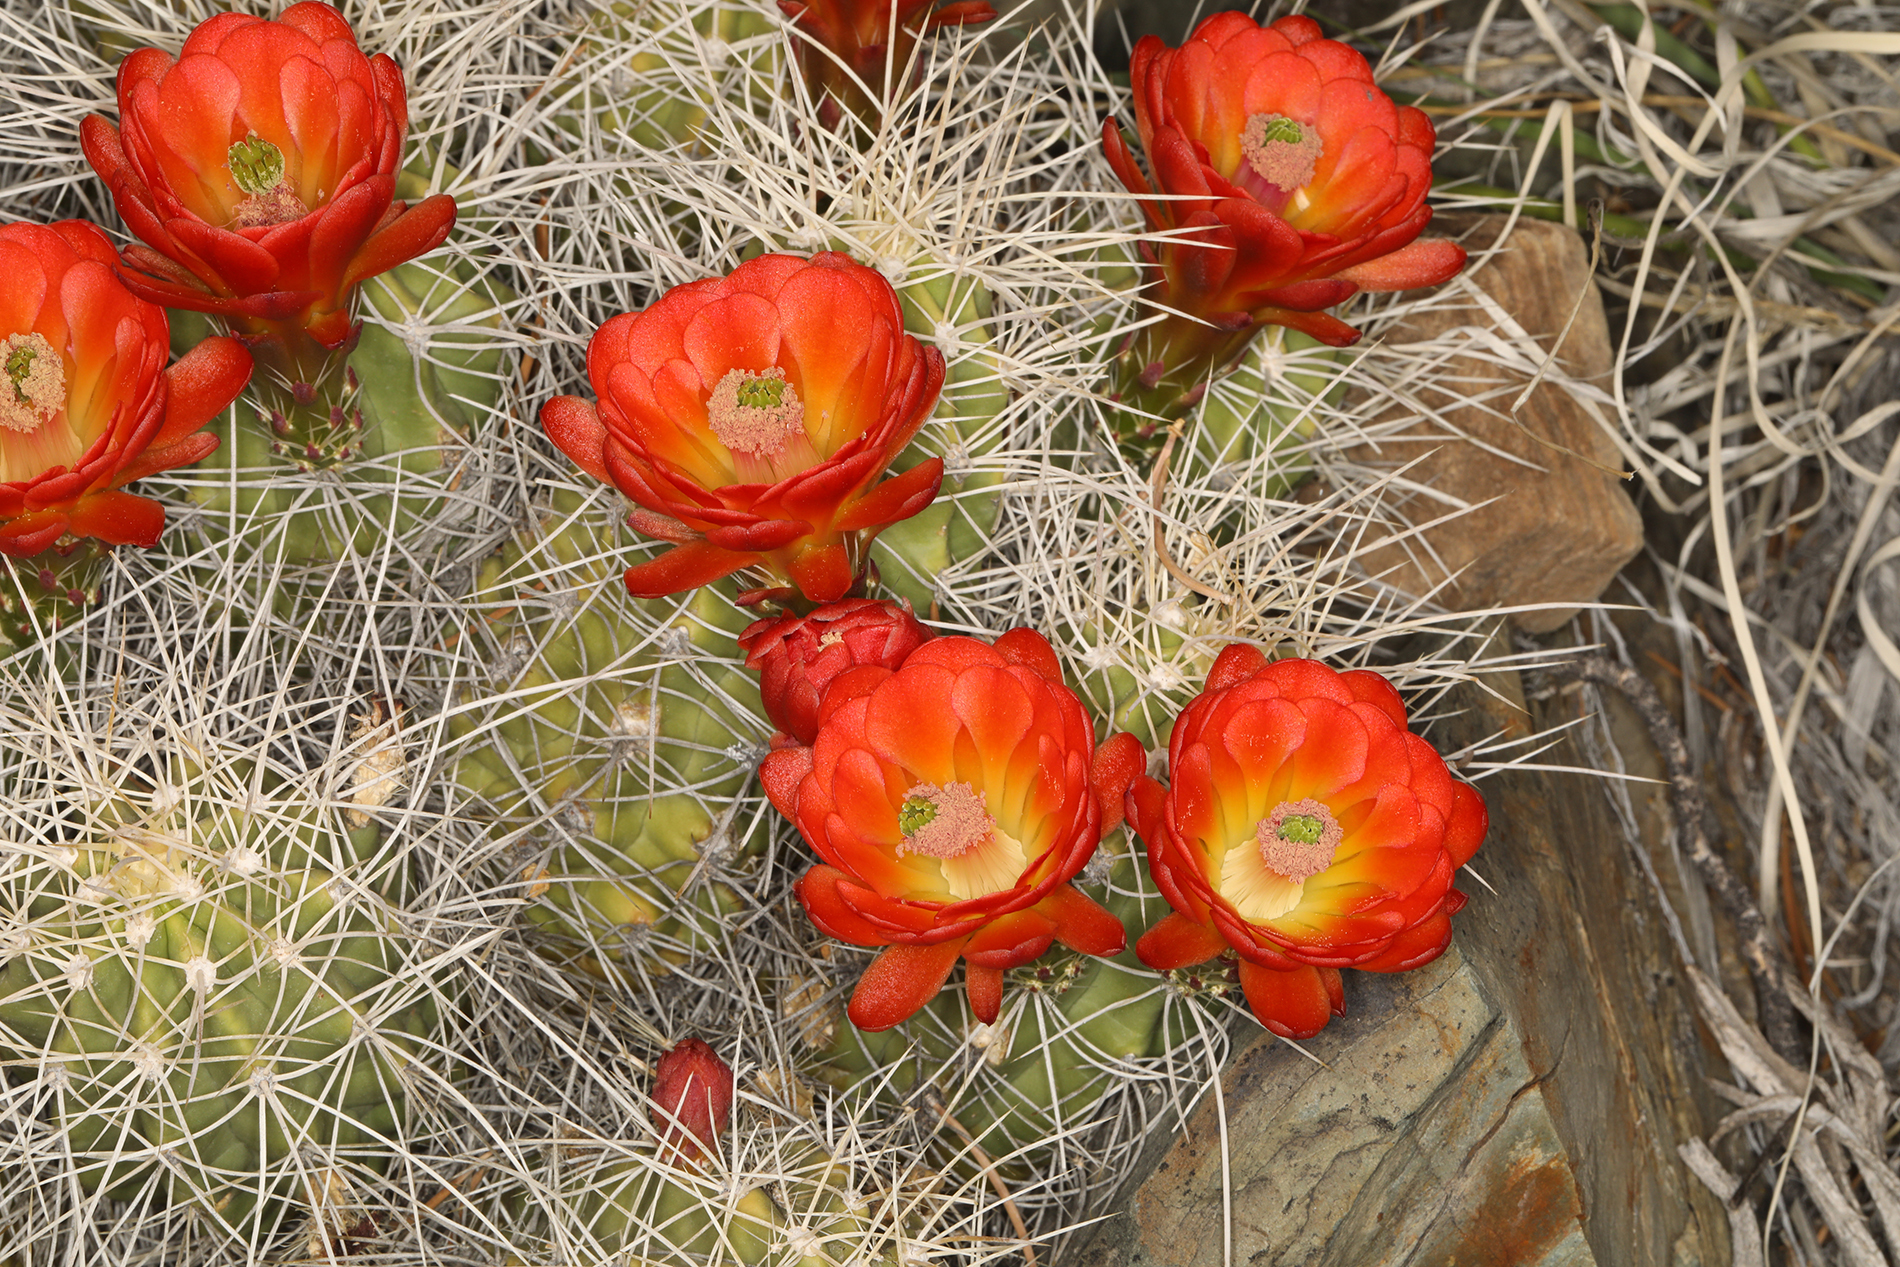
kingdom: Plantae
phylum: Tracheophyta
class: Magnoliopsida
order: Caryophyllales
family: Cactaceae
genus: Echinocereus
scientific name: Echinocereus triglochidiatus
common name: Claretcup hedgehog
